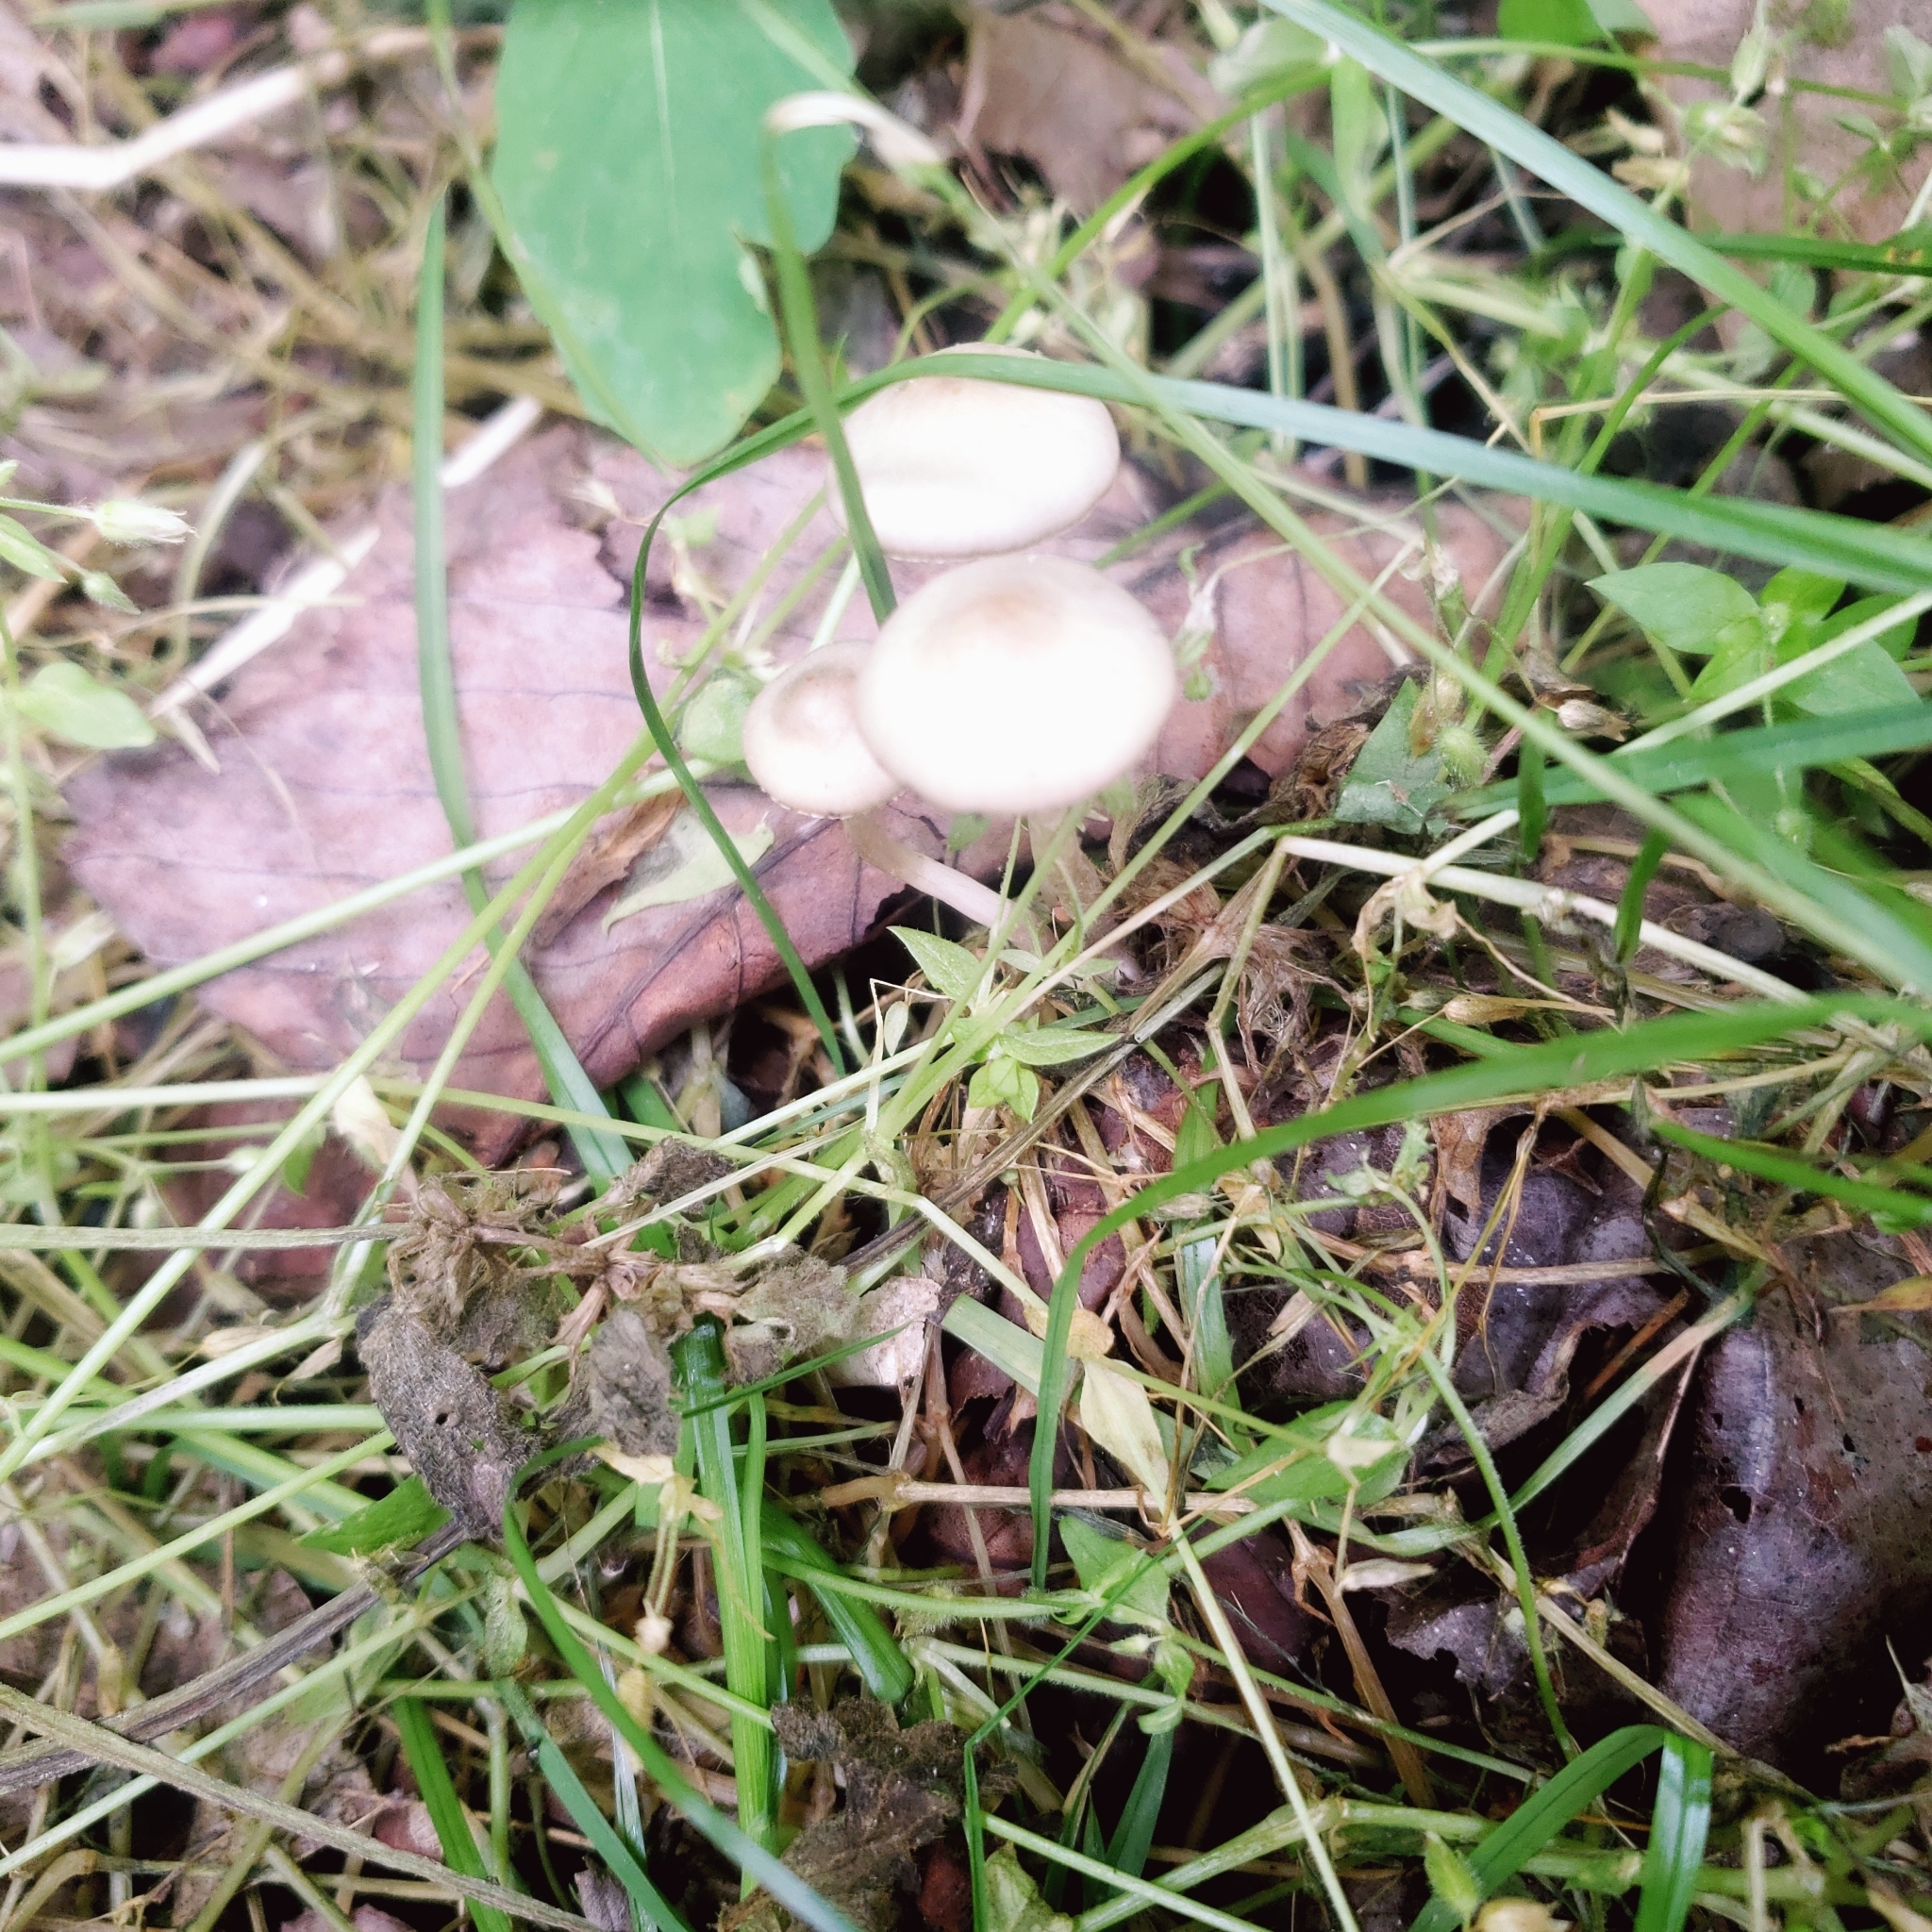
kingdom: Fungi
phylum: Basidiomycota
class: Agaricomycetes
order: Agaricales
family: Hymenogastraceae
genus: Psilocybe
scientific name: Psilocybe ovoideocystidiata
